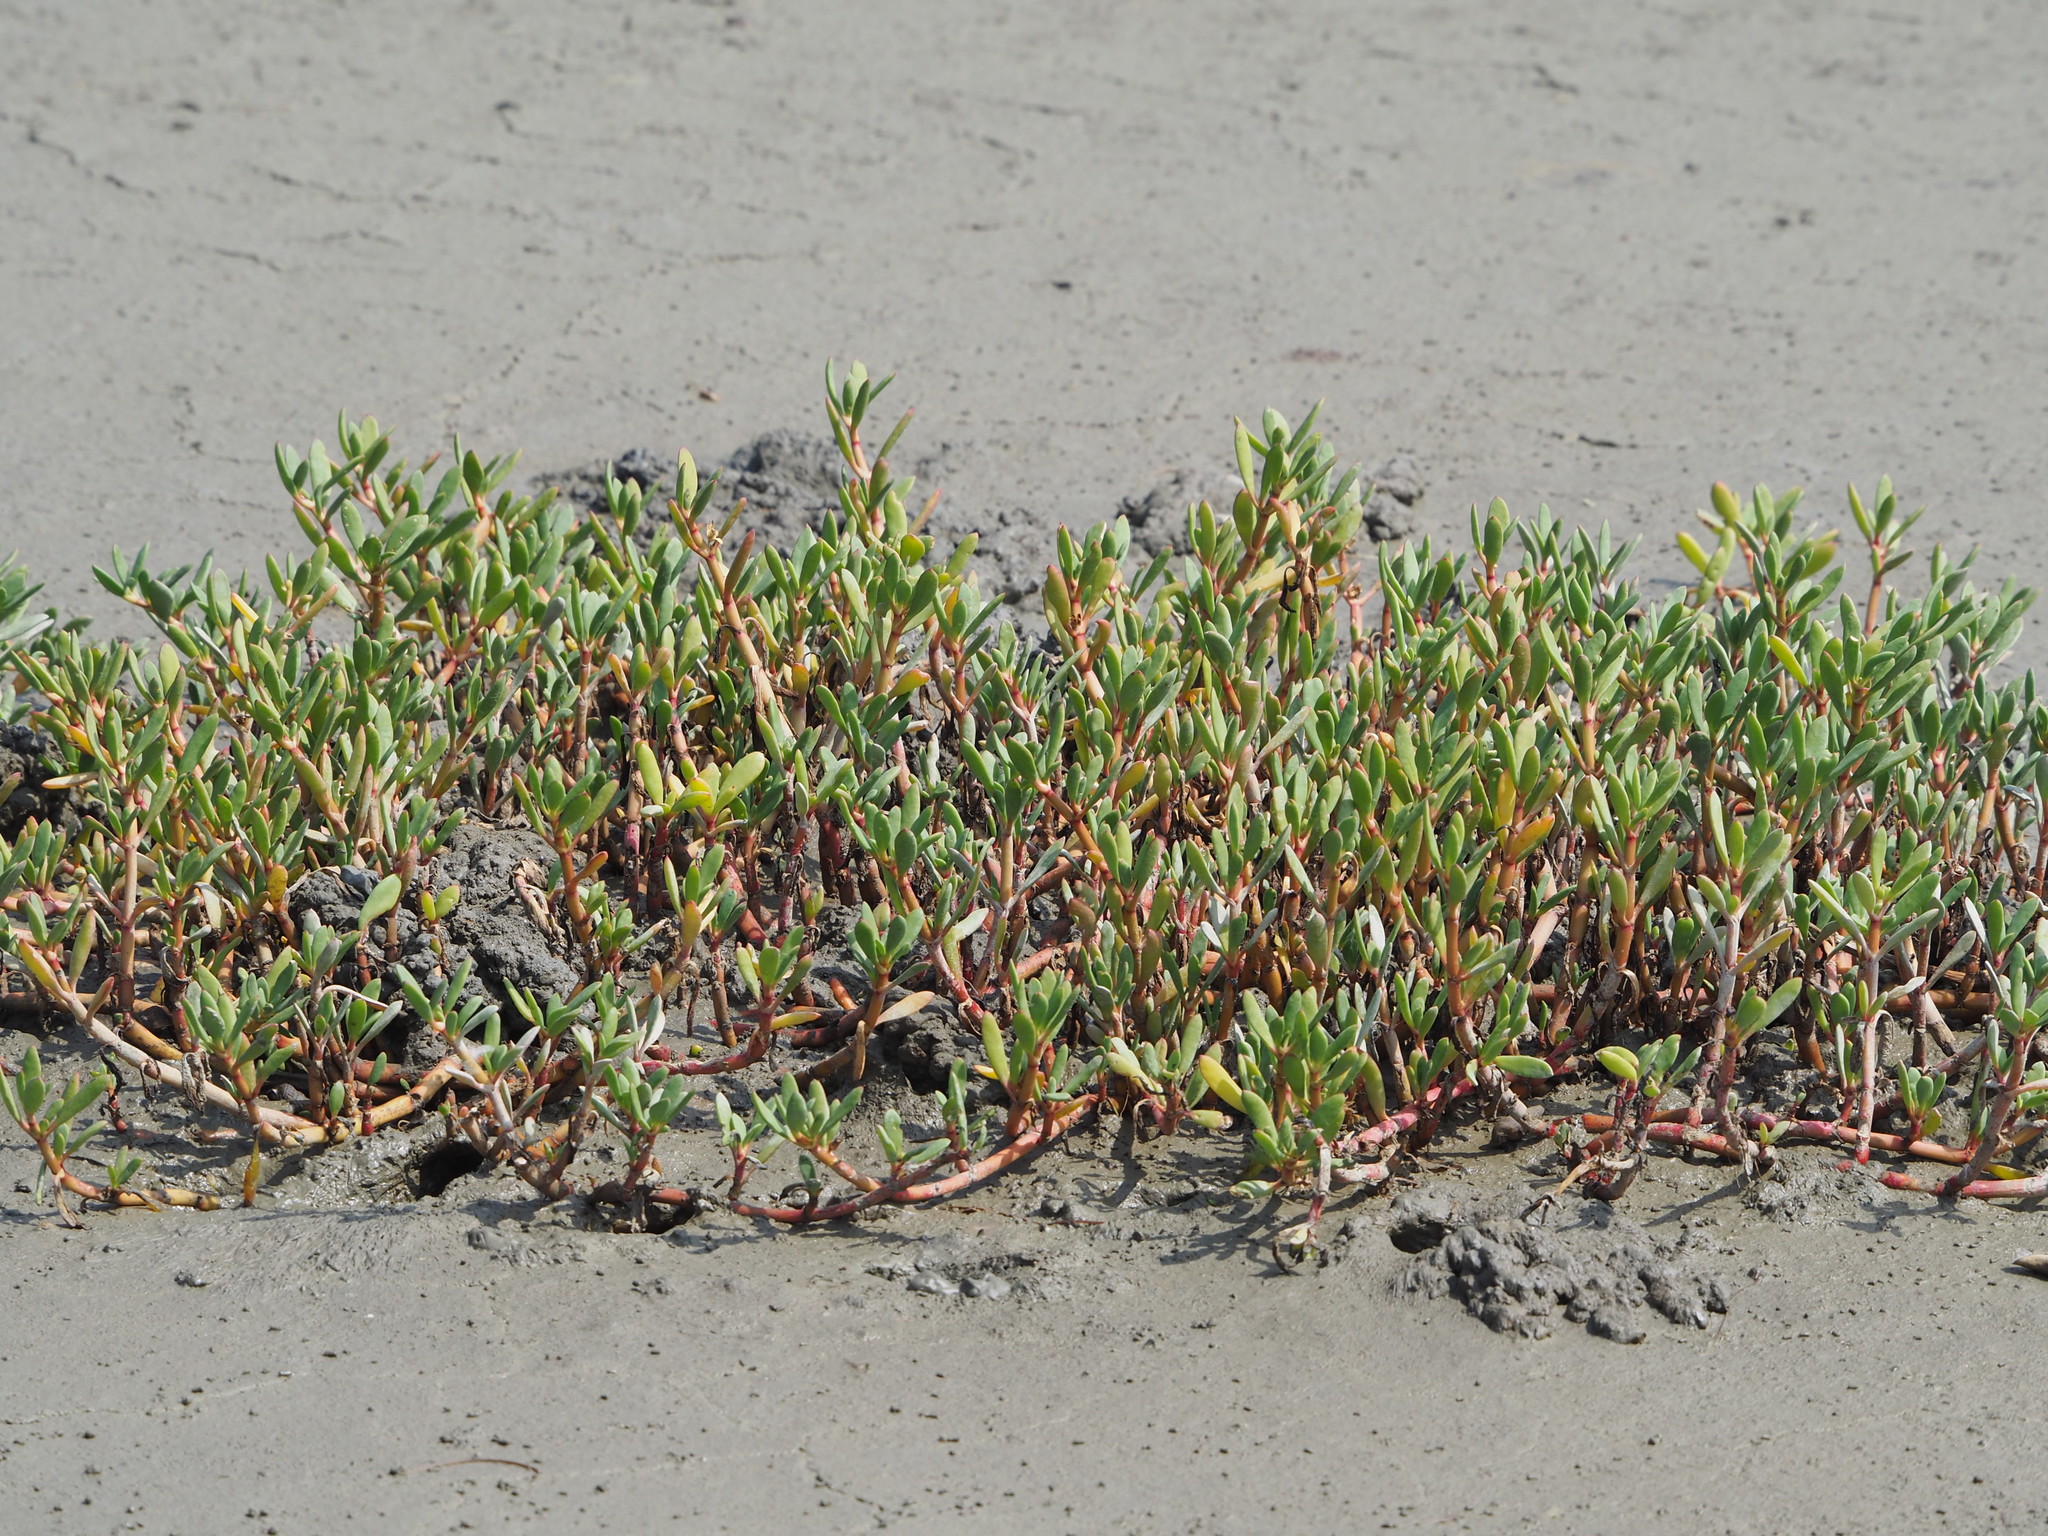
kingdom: Plantae
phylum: Tracheophyta
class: Magnoliopsida
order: Caryophyllales
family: Aizoaceae
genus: Sesuvium
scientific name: Sesuvium portulacastrum
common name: Sea-purslane
